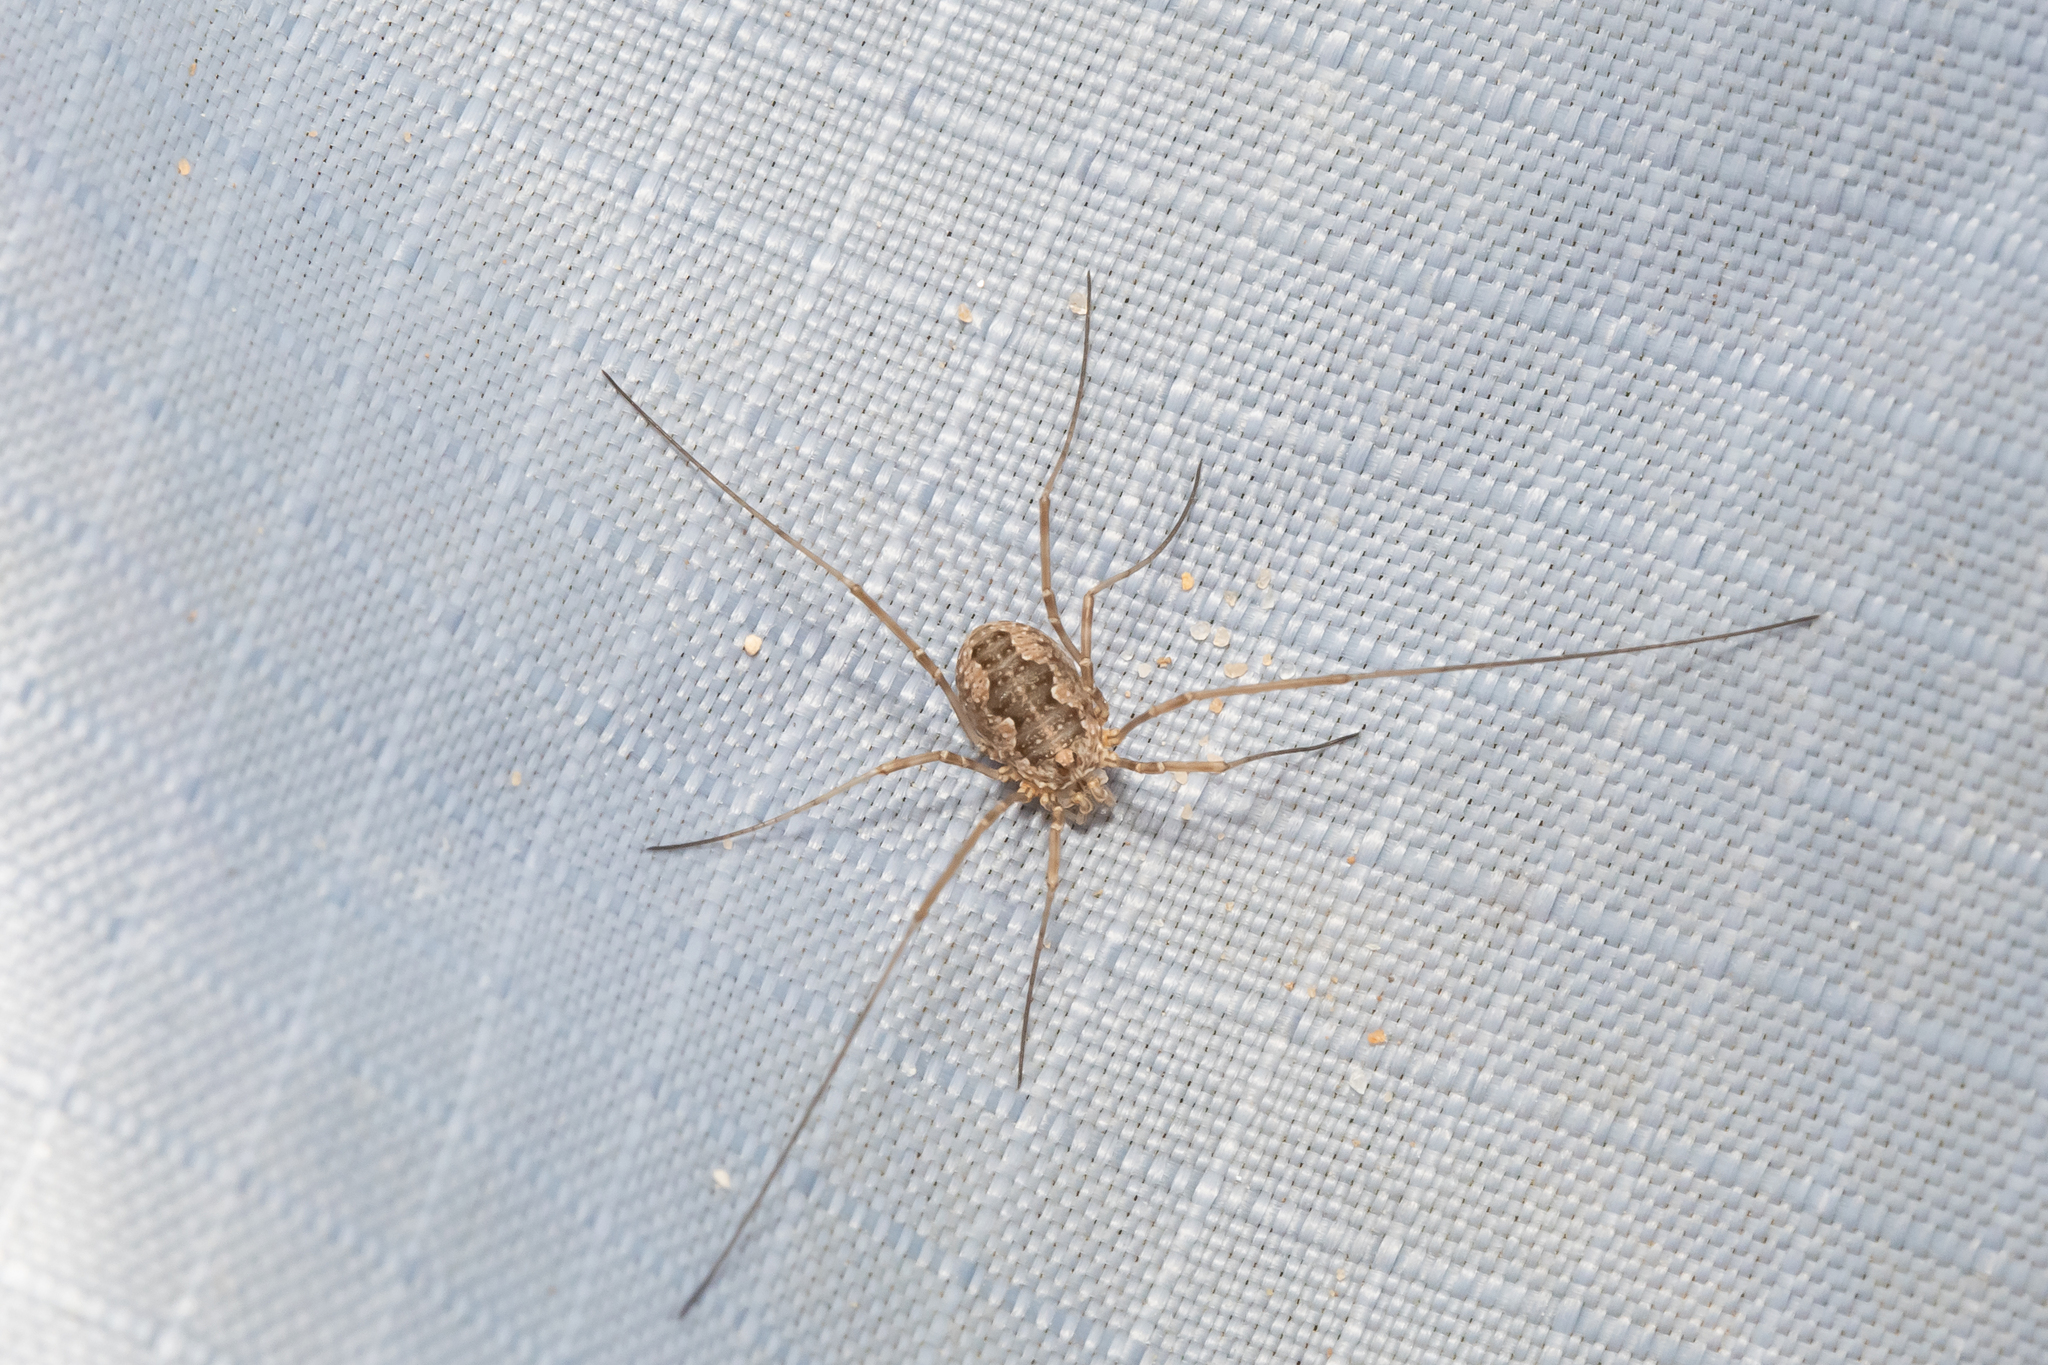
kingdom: Animalia
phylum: Arthropoda
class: Arachnida
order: Opiliones
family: Phalangiidae
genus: Phalangium
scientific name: Phalangium opilio
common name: Daddy longleg
